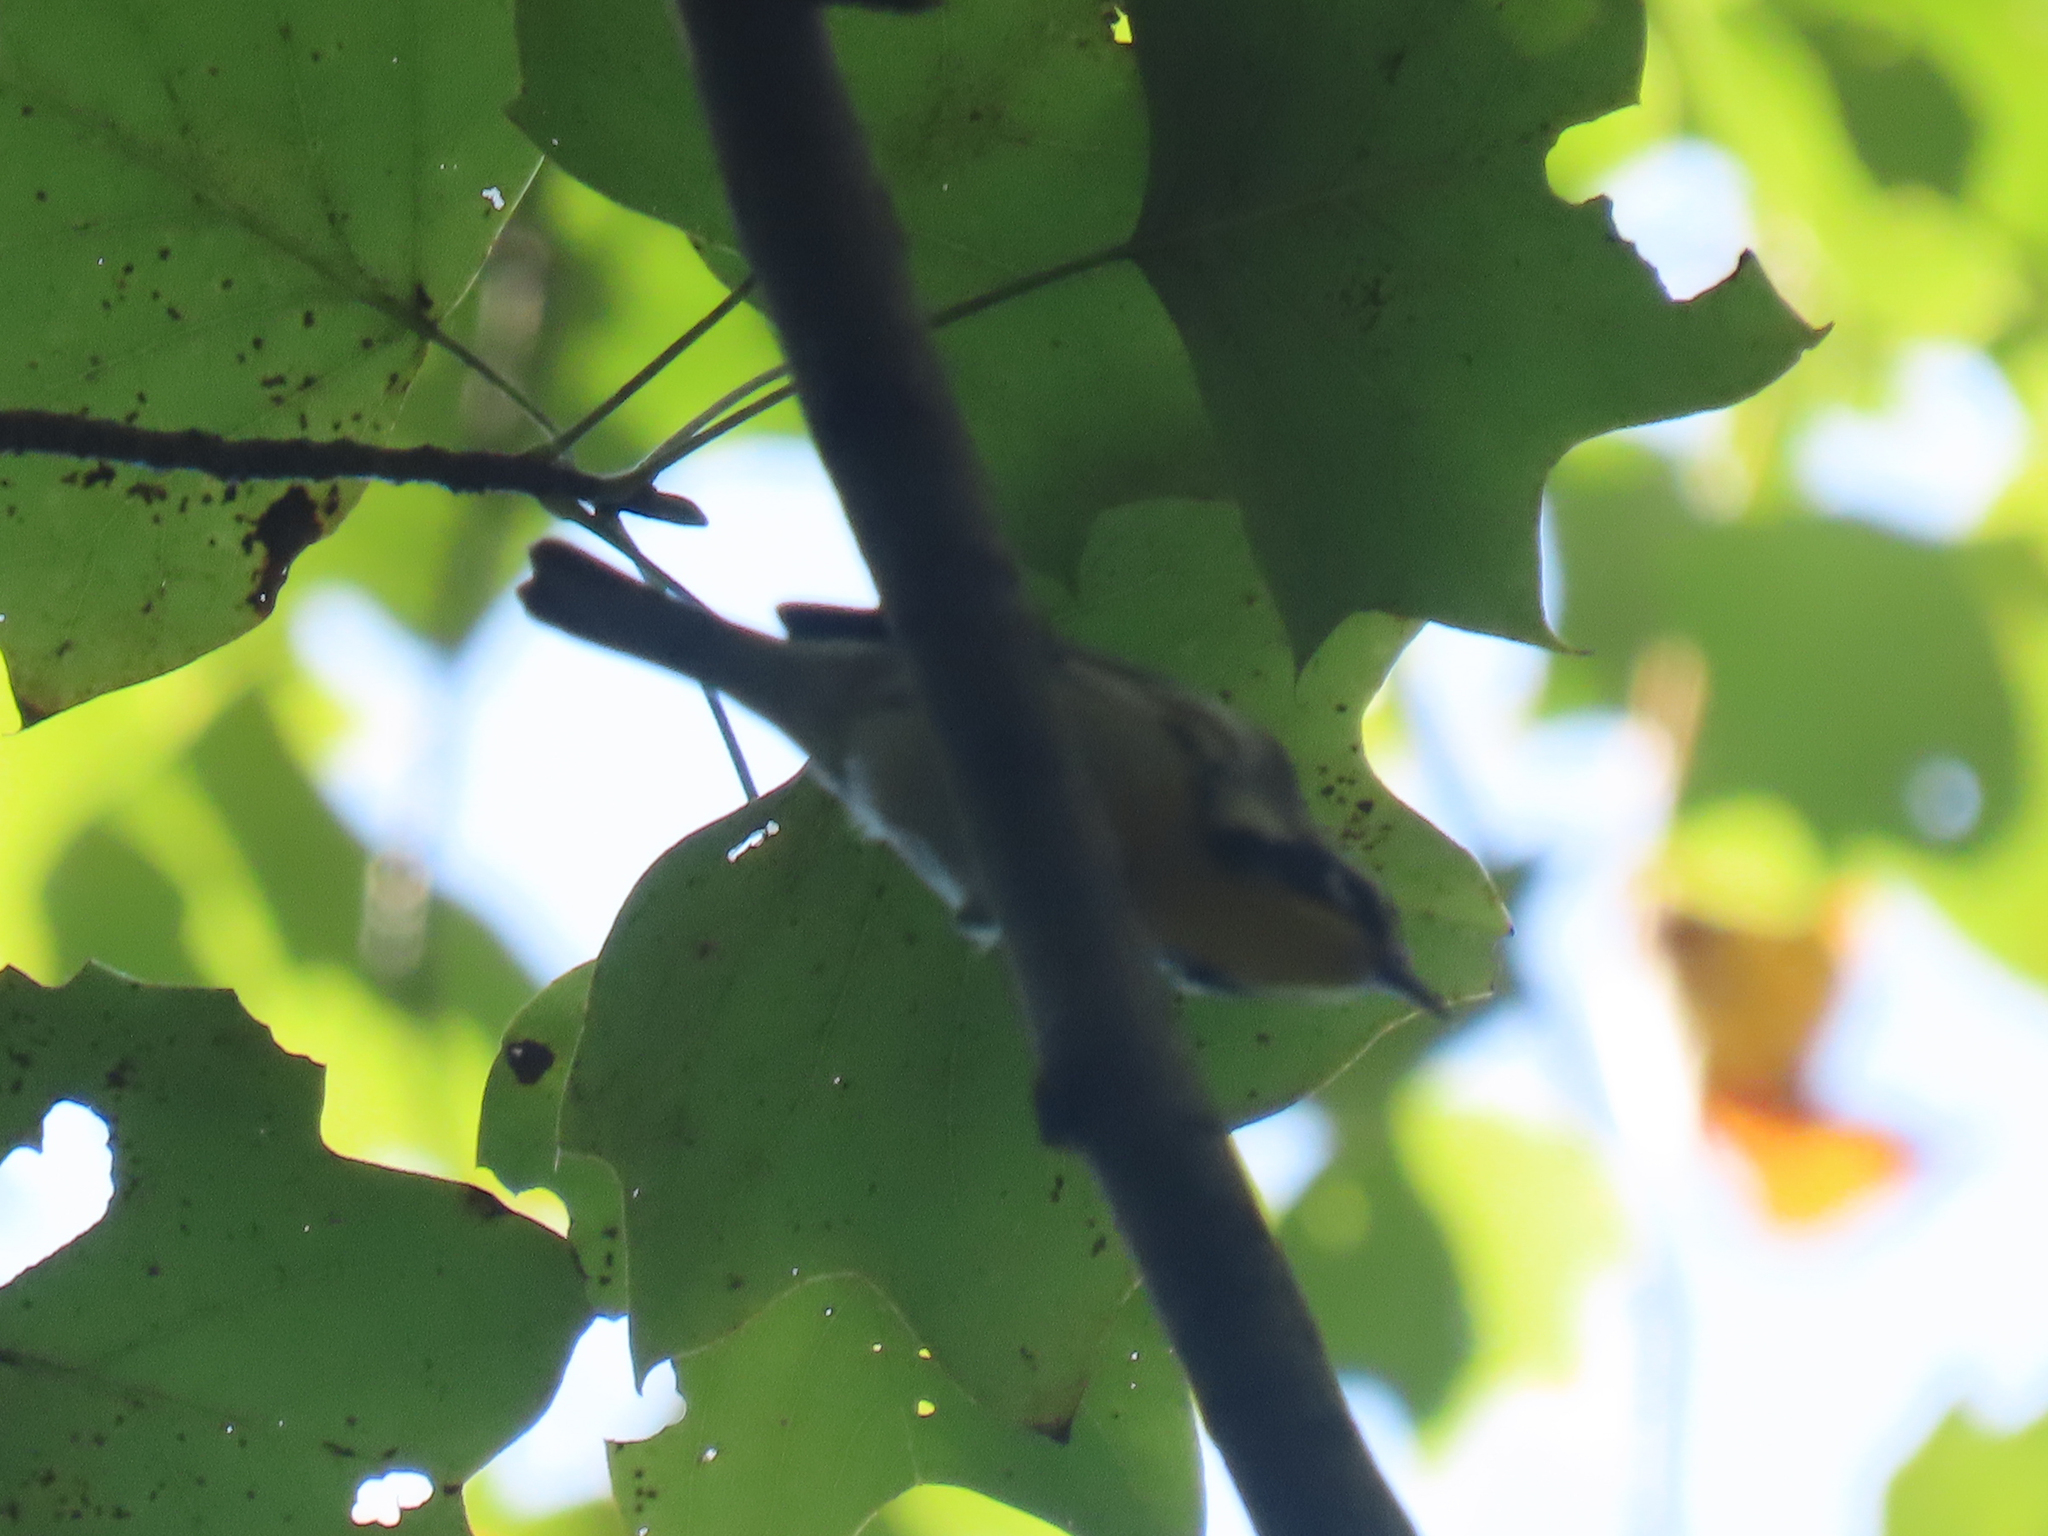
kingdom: Animalia
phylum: Chordata
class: Aves
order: Passeriformes
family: Parulidae
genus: Setophaga
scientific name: Setophaga dominica
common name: Yellow-throated warbler
